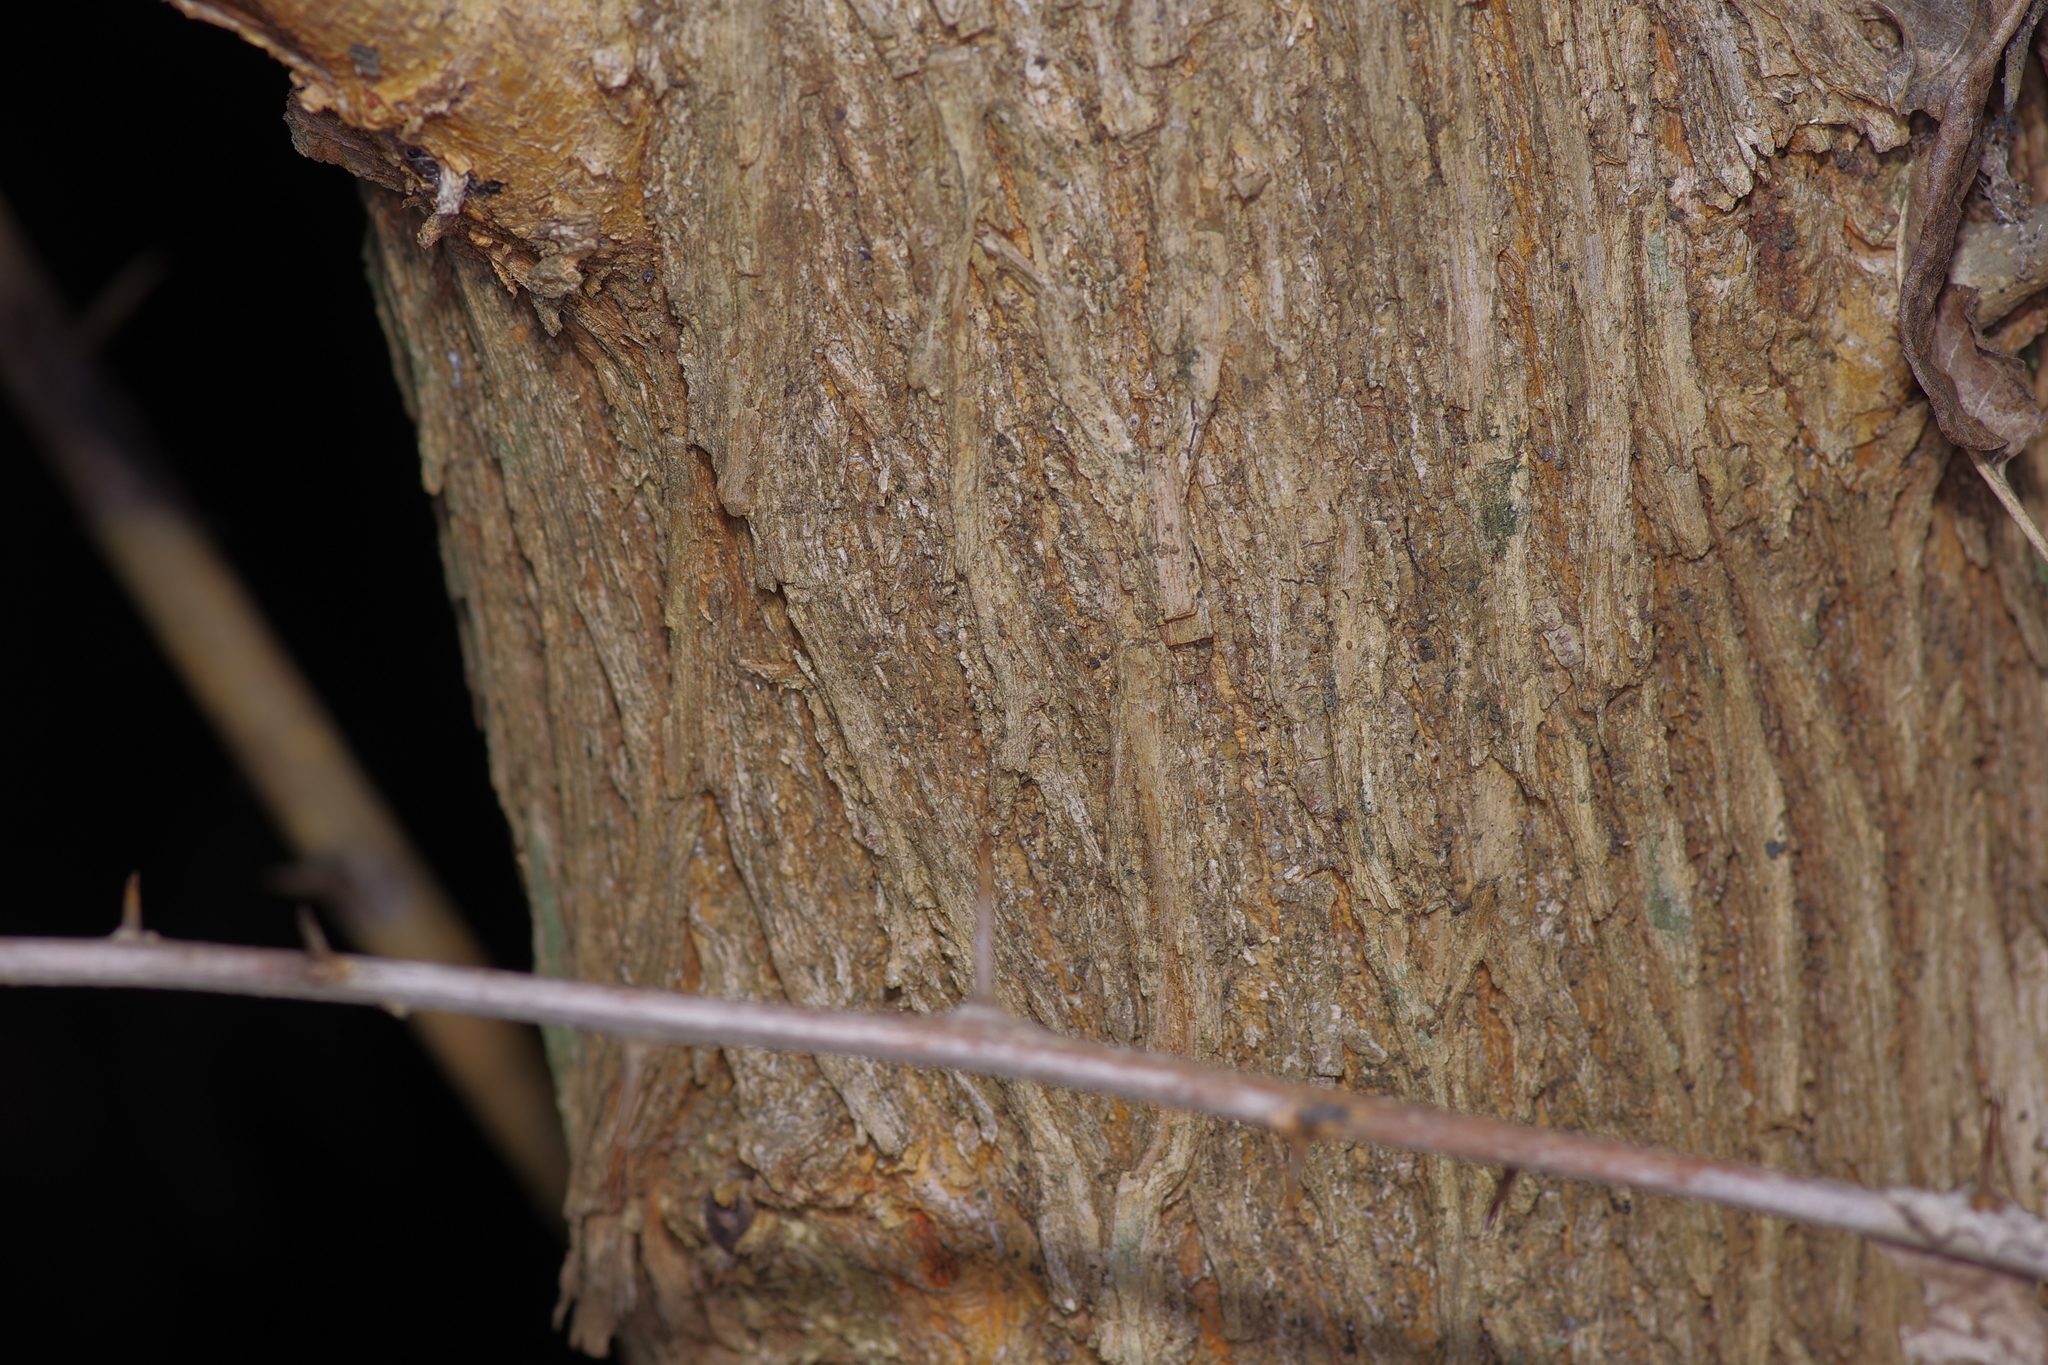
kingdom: Plantae
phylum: Tracheophyta
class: Magnoliopsida
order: Rosales
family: Moraceae
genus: Maclura
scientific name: Maclura pomifera
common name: Osage-orange
